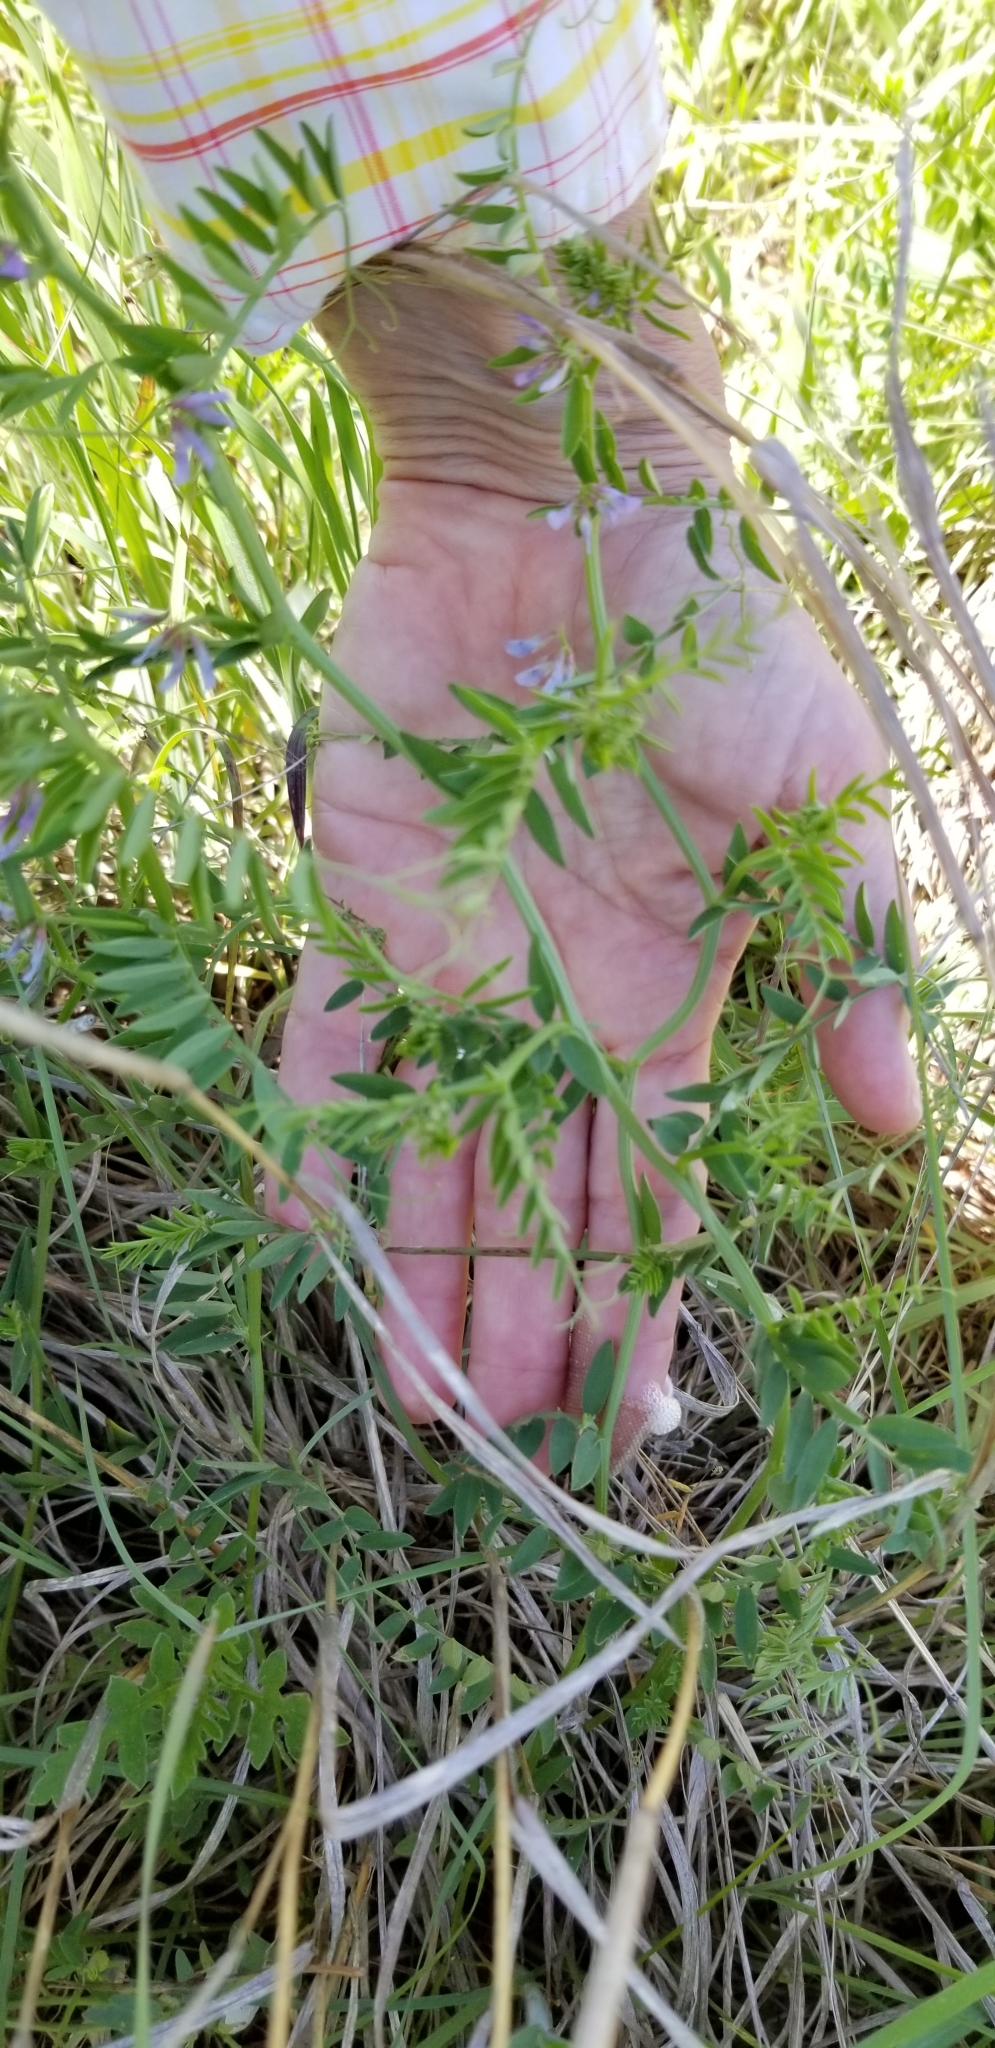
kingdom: Plantae
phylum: Tracheophyta
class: Magnoliopsida
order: Fabales
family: Fabaceae
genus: Vicia
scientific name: Vicia ludoviciana
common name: Louisiana vetch
